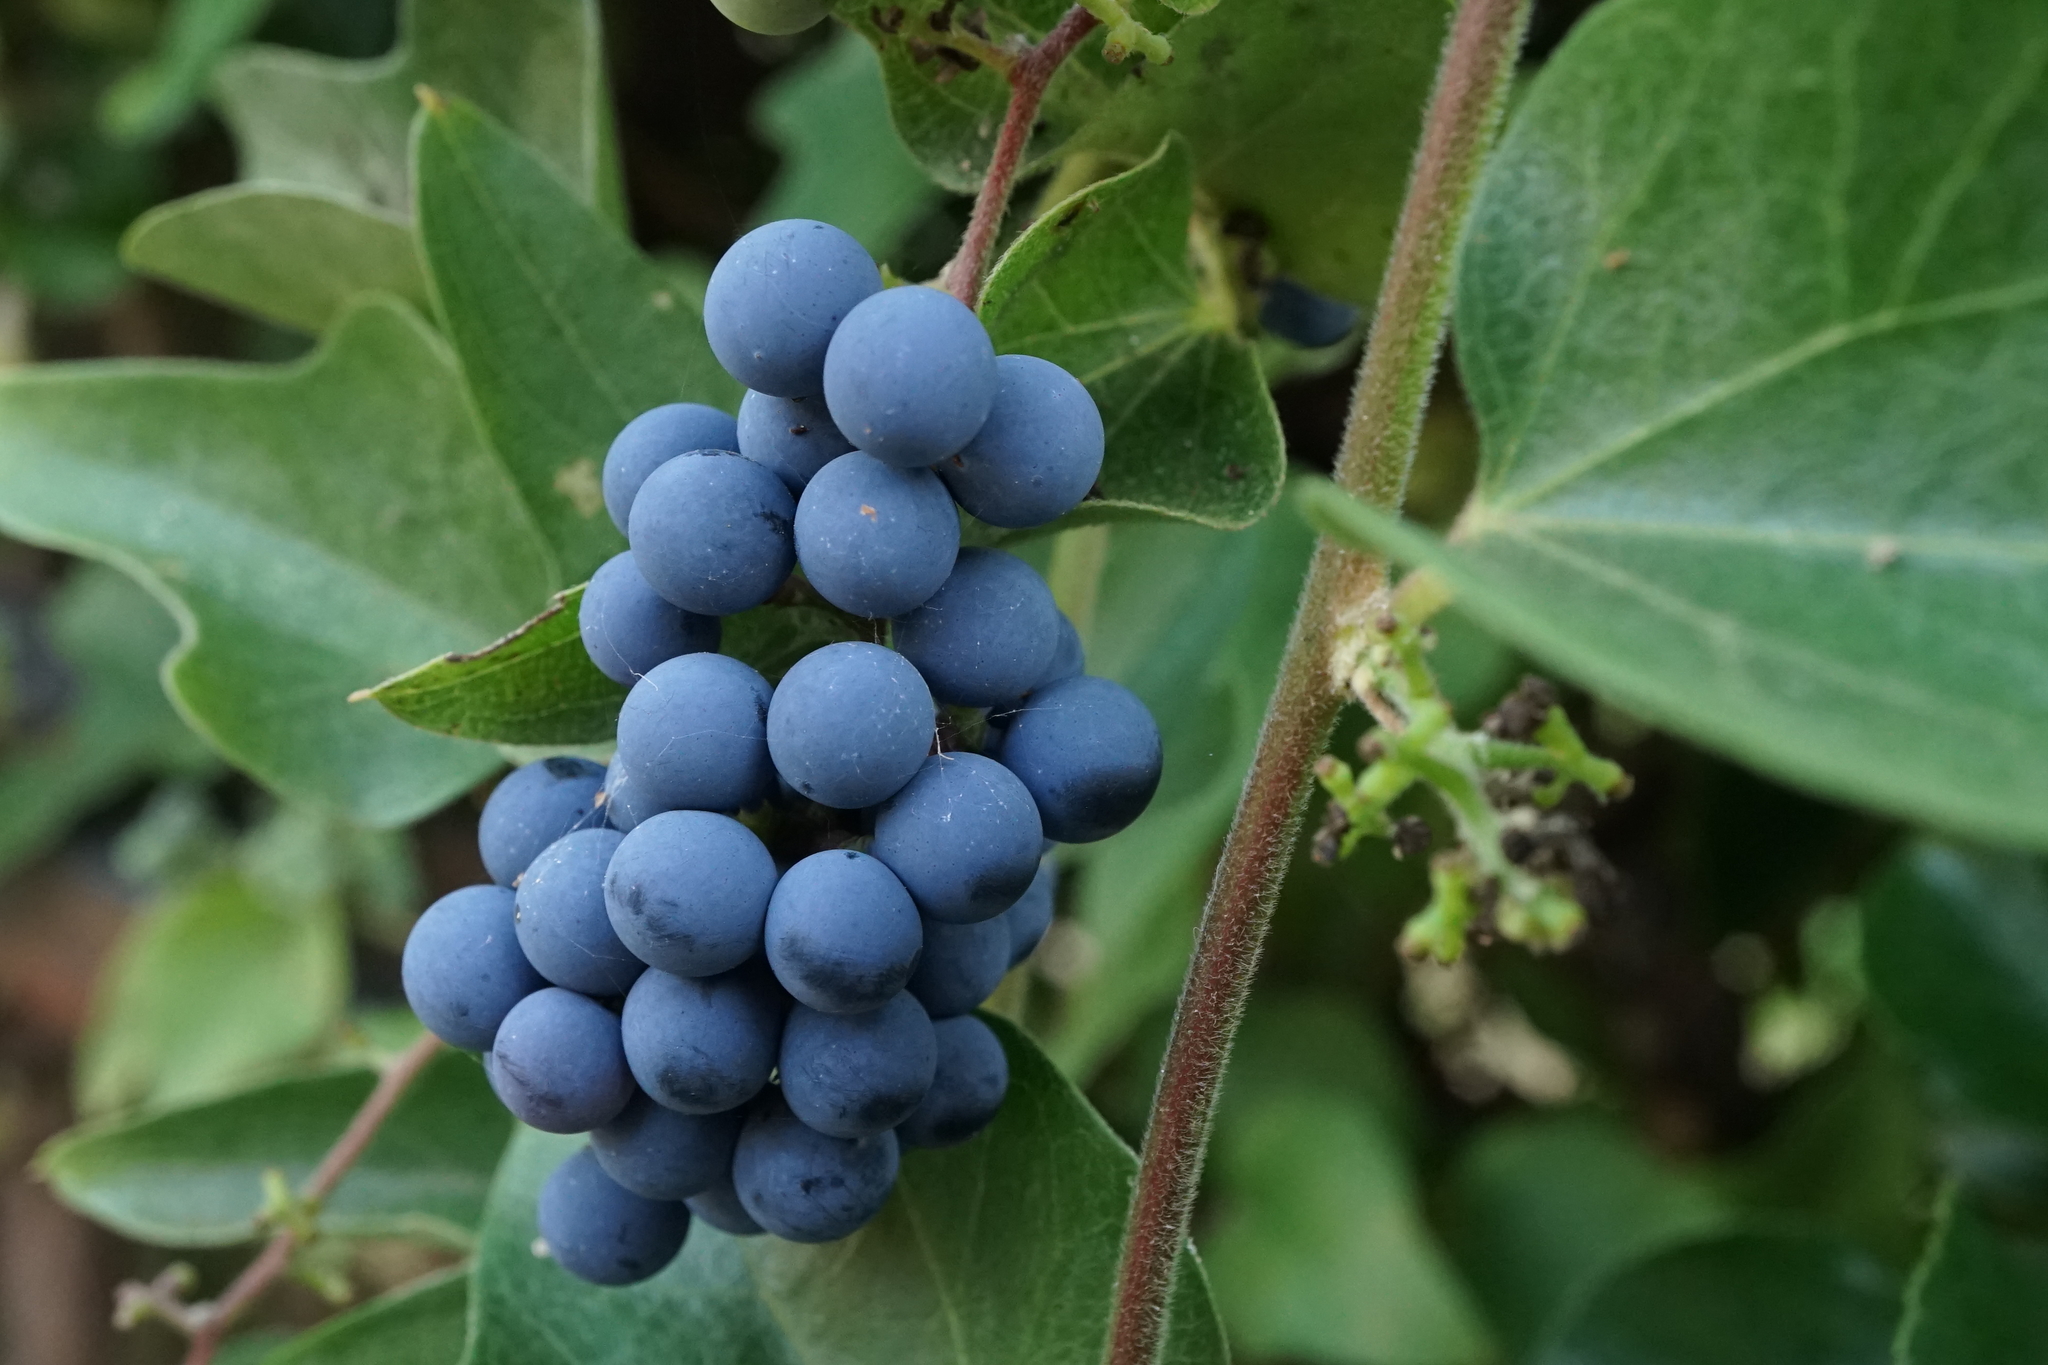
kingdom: Plantae
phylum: Tracheophyta
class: Magnoliopsida
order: Ranunculales
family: Menispermaceae
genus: Cocculus
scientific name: Cocculus orbiculatus
